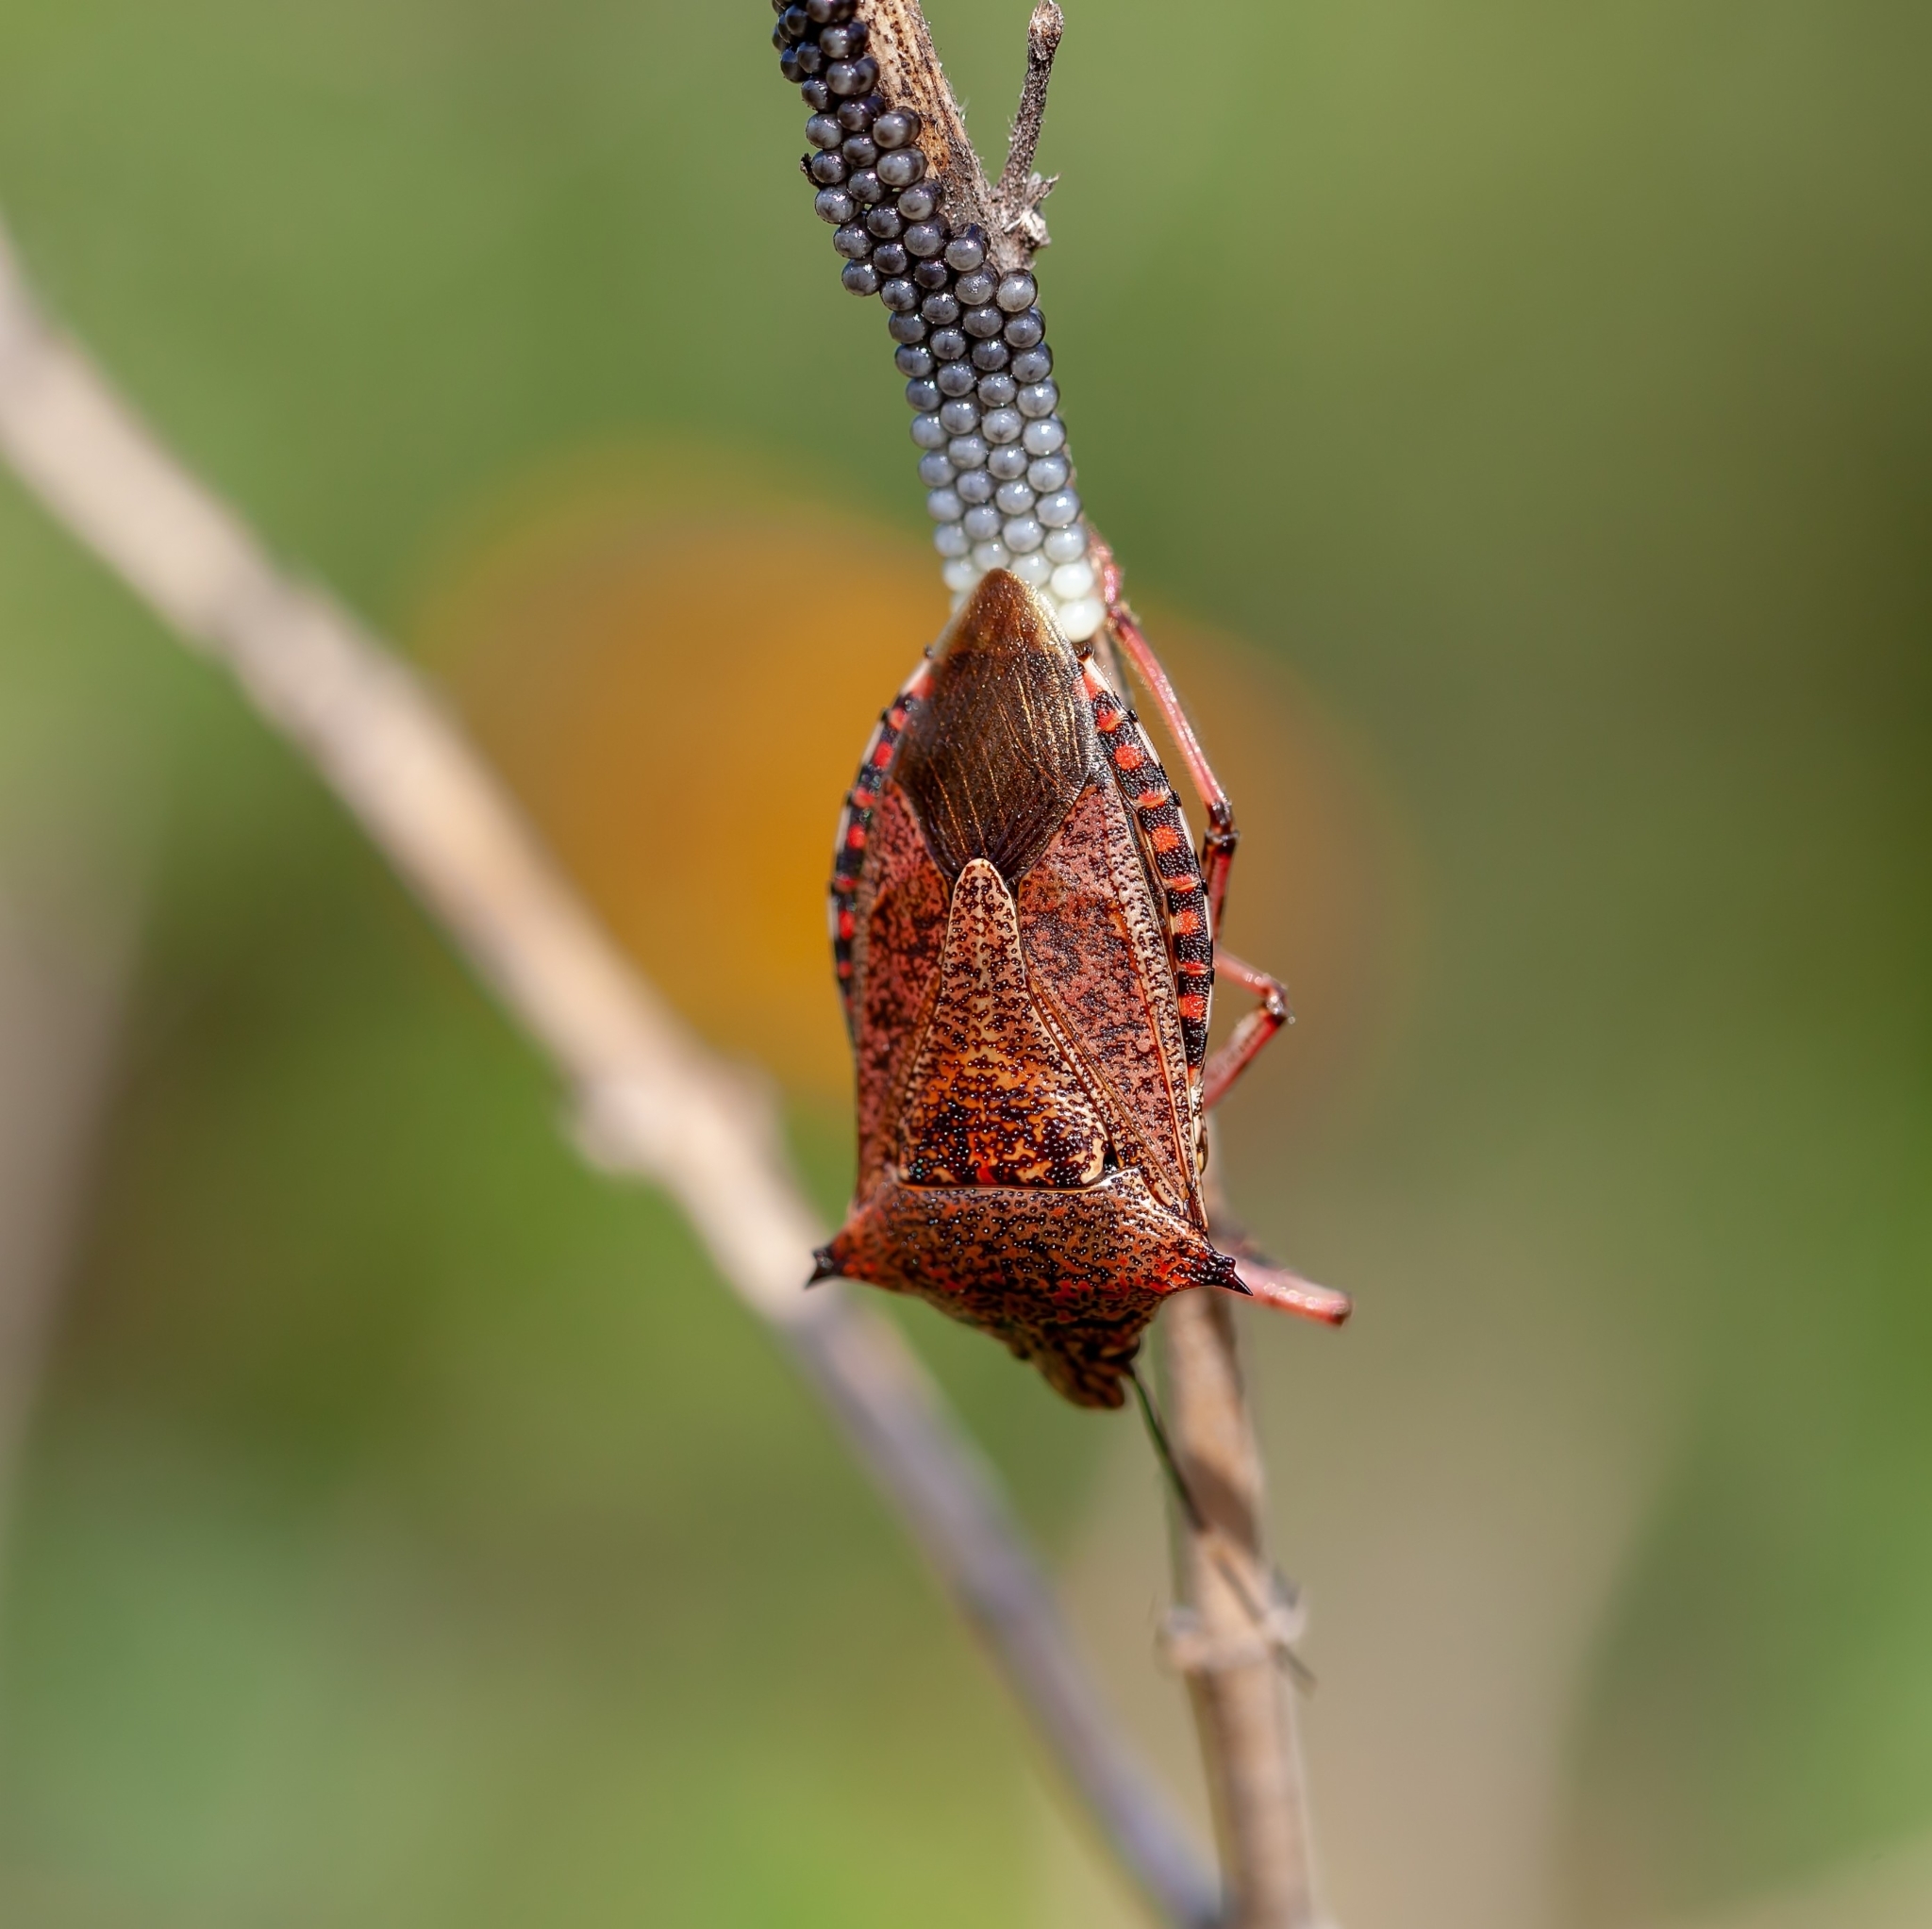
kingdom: Animalia
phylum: Arthropoda
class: Insecta
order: Hemiptera
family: Pentatomidae
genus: Alcaeorrhynchus
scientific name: Alcaeorrhynchus grandis
